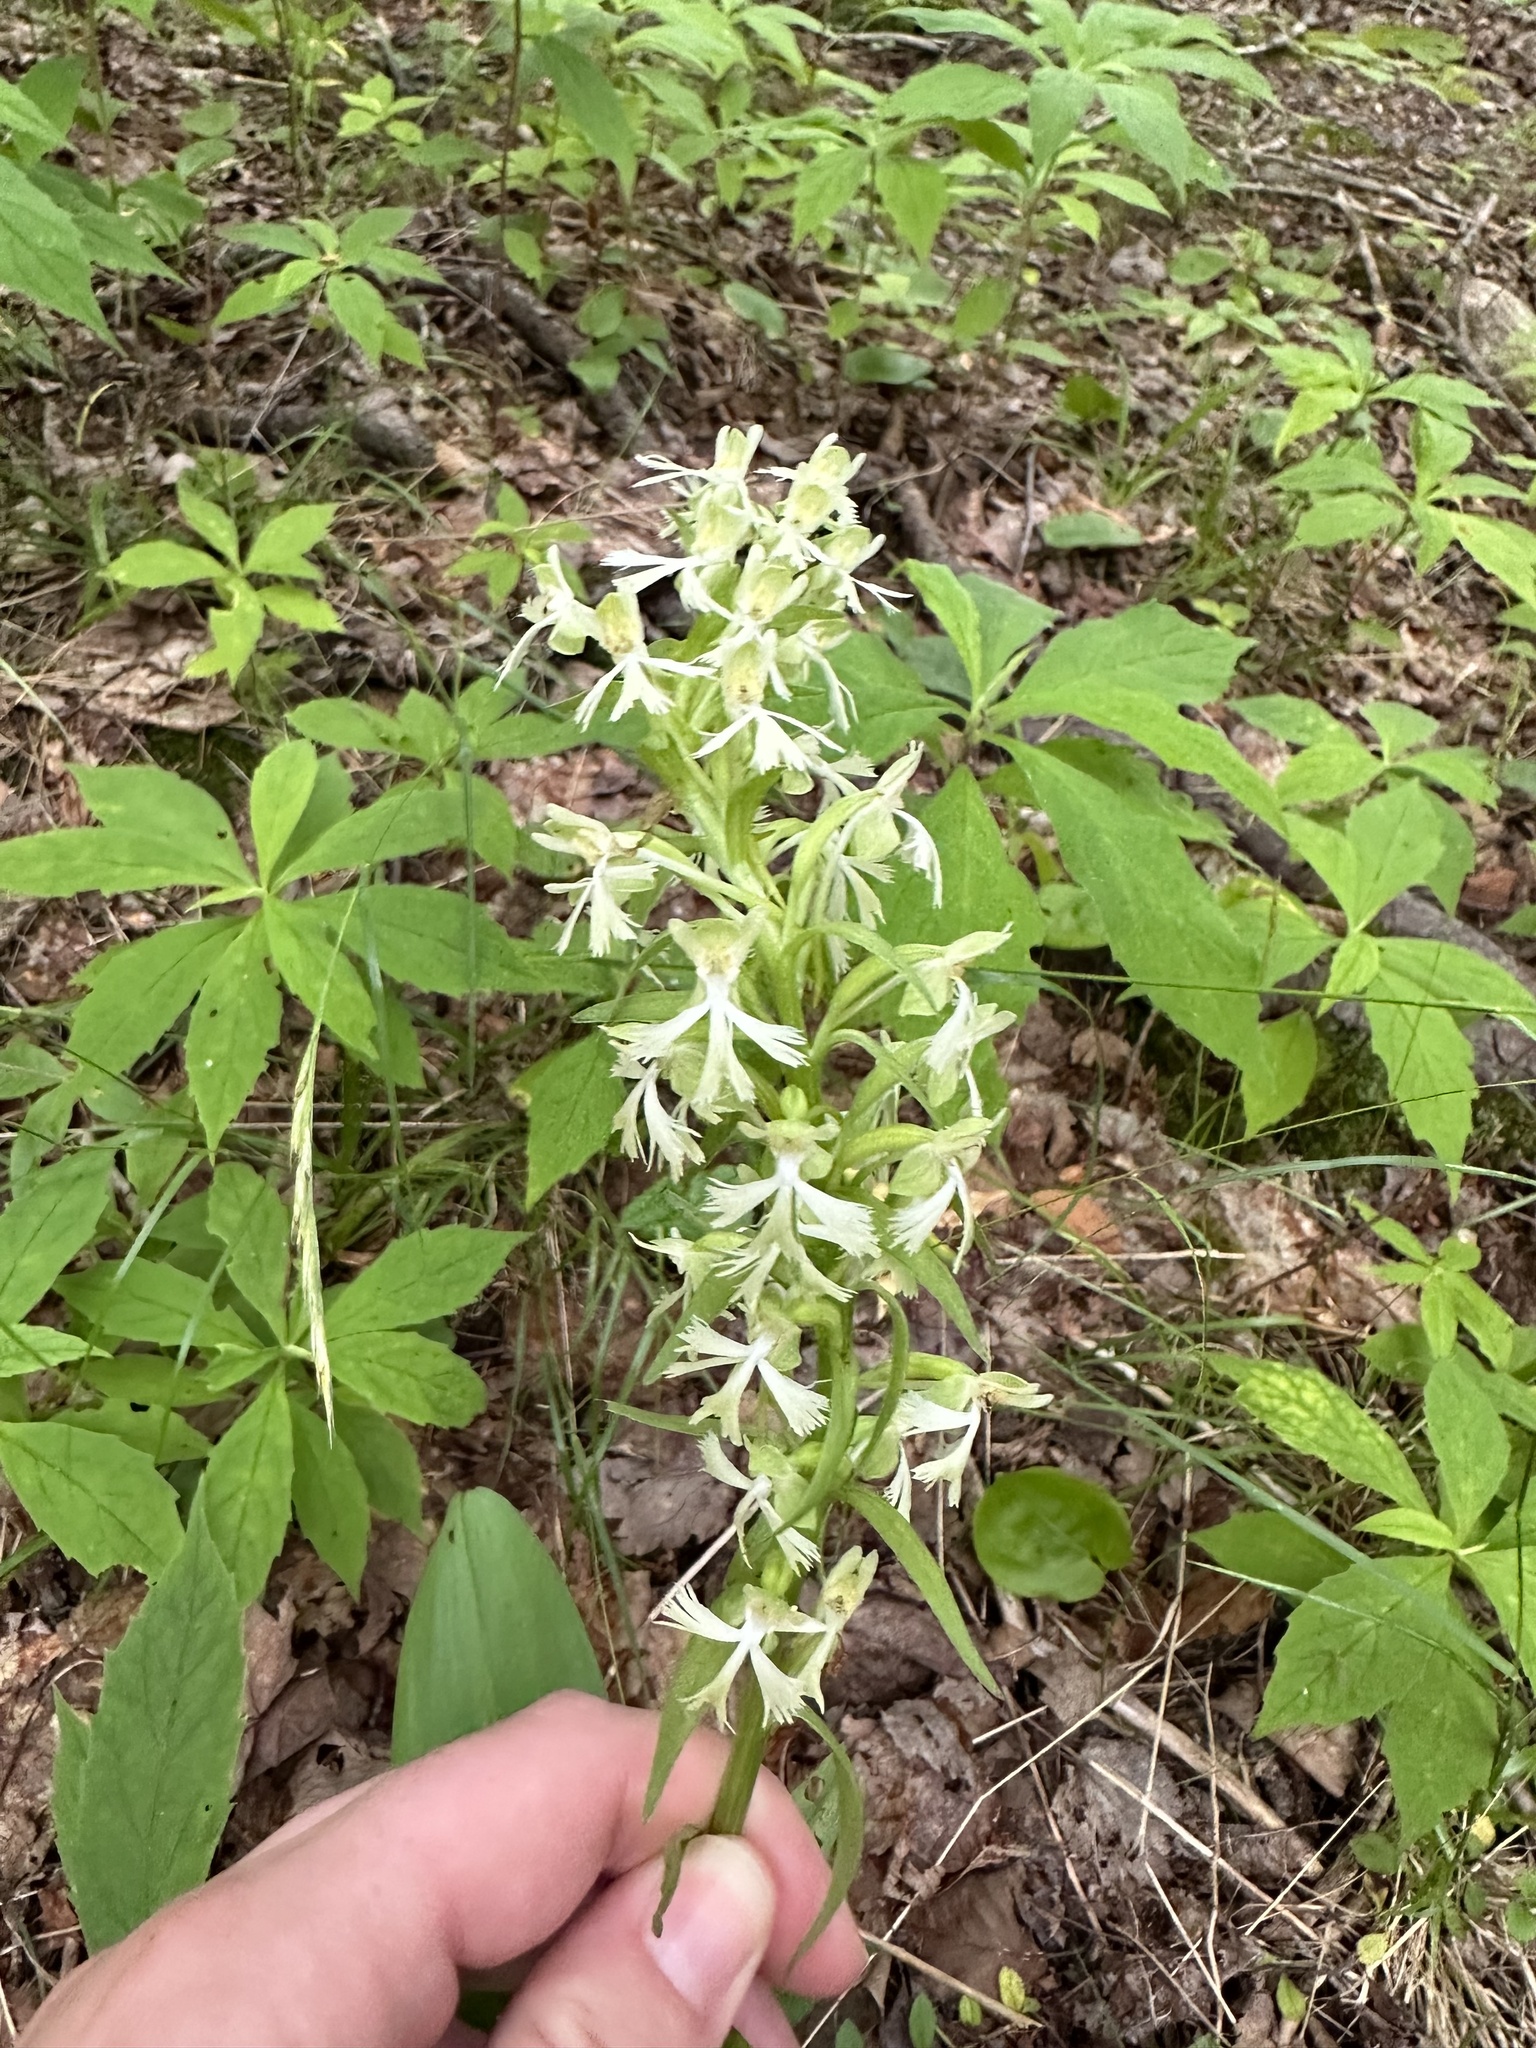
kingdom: Plantae
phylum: Tracheophyta
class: Liliopsida
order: Asparagales
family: Orchidaceae
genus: Platanthera
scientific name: Platanthera lacera
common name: Green fringed orchid
